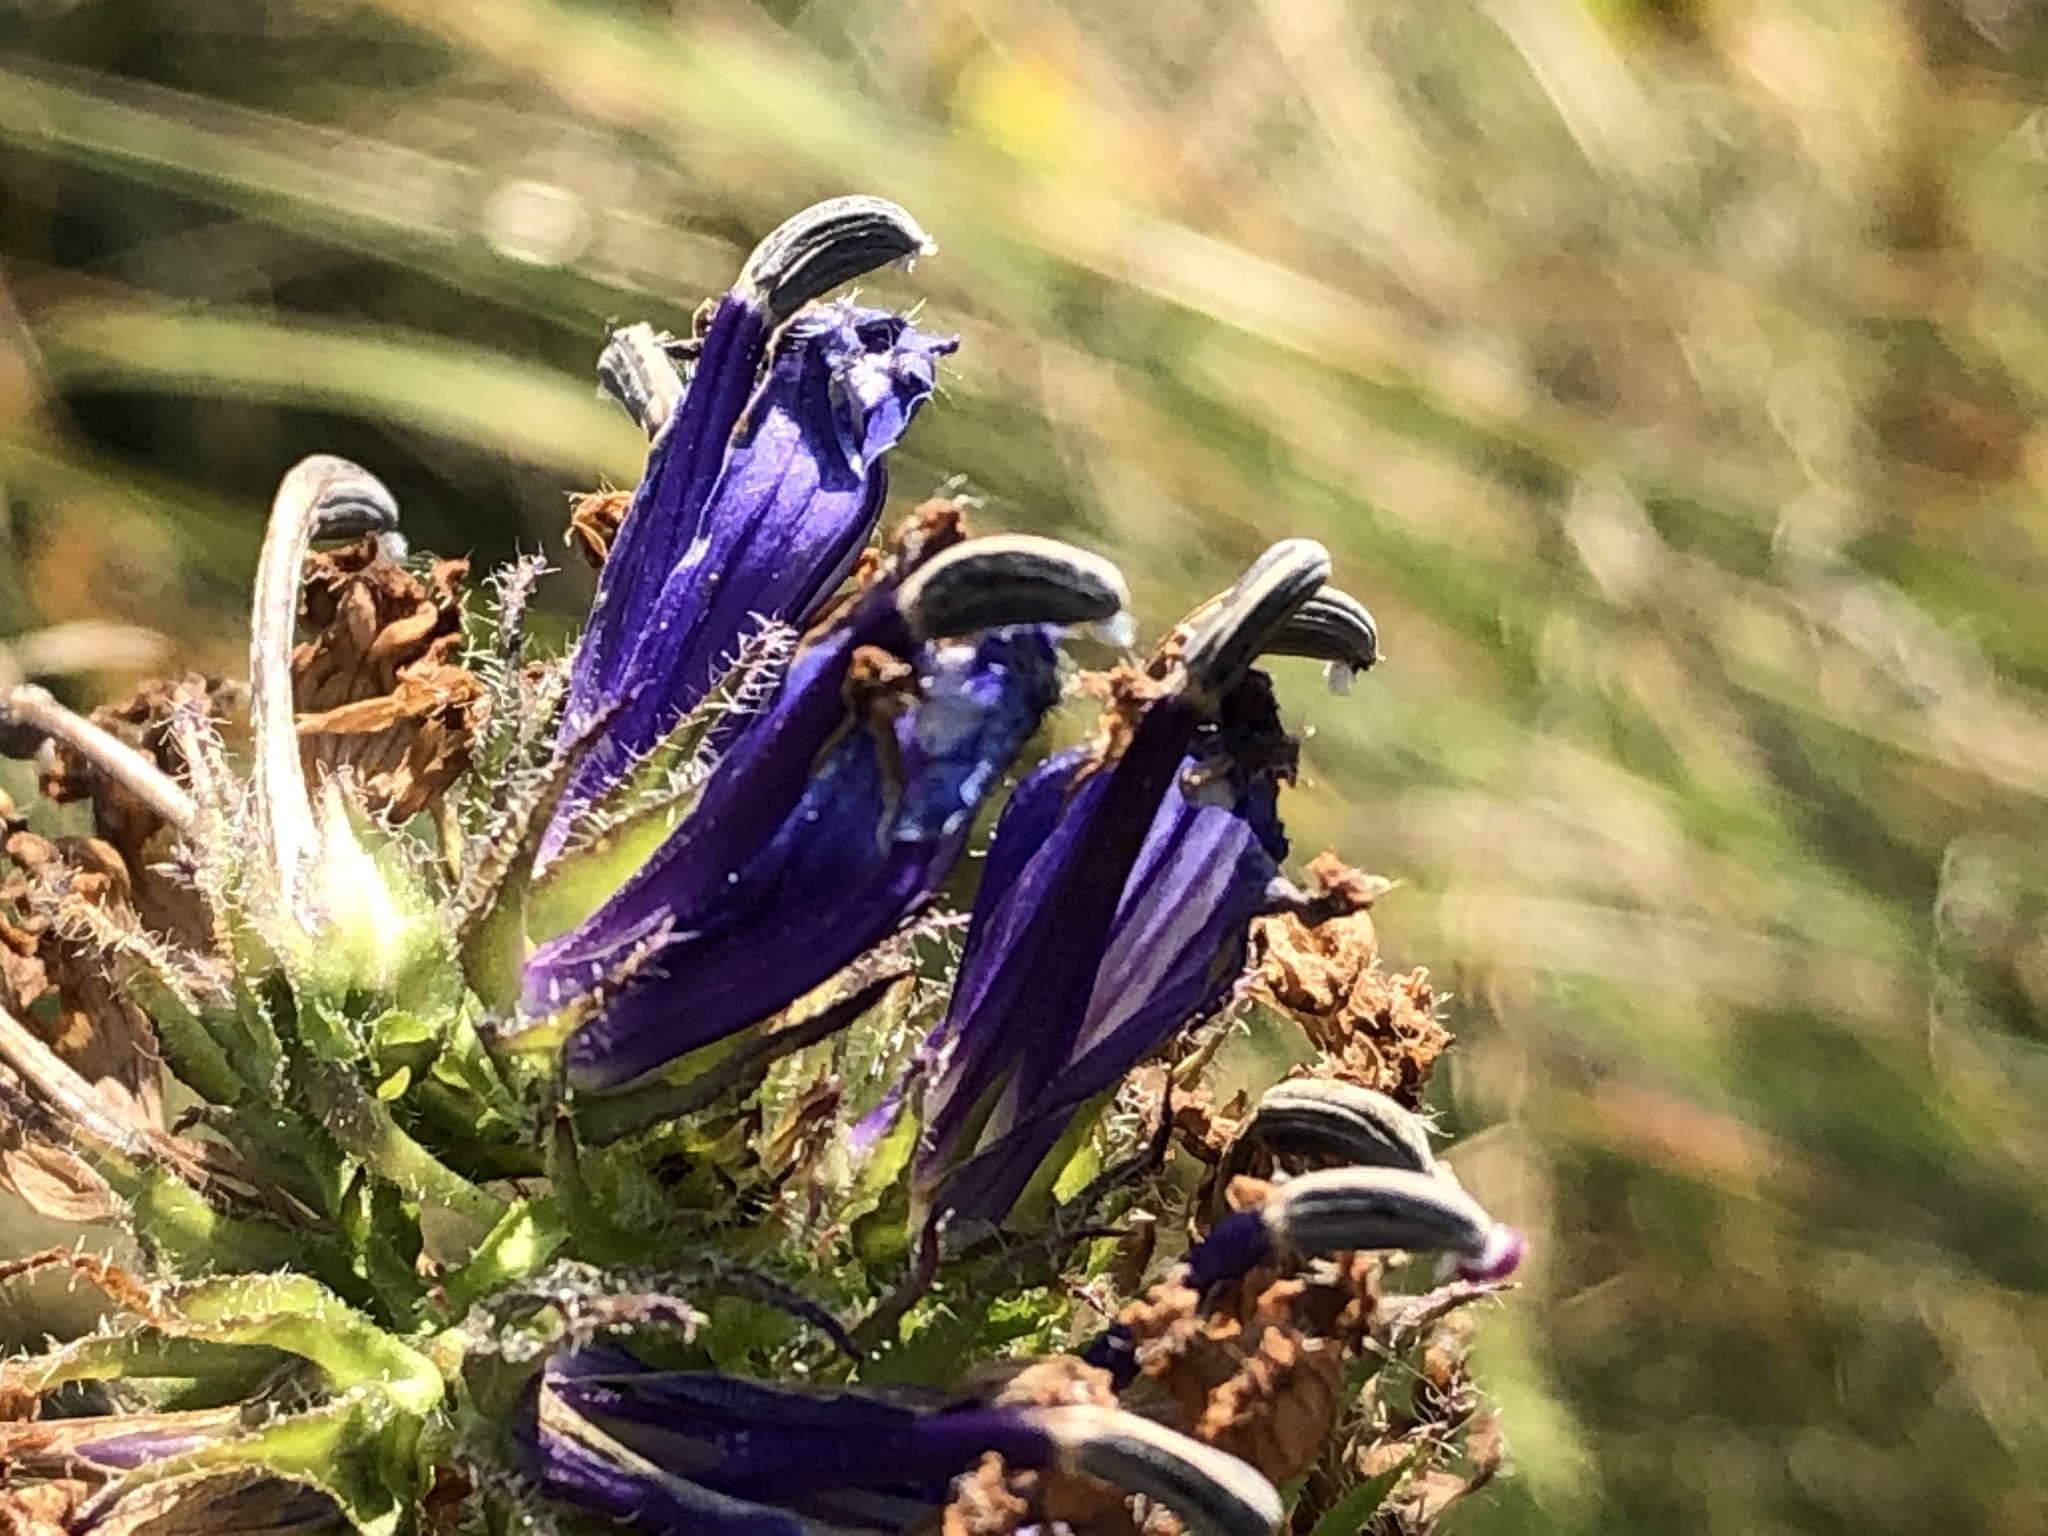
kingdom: Plantae
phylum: Tracheophyta
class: Magnoliopsida
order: Asterales
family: Campanulaceae
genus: Lobelia
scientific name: Lobelia siphilitica
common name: Great lobelia
